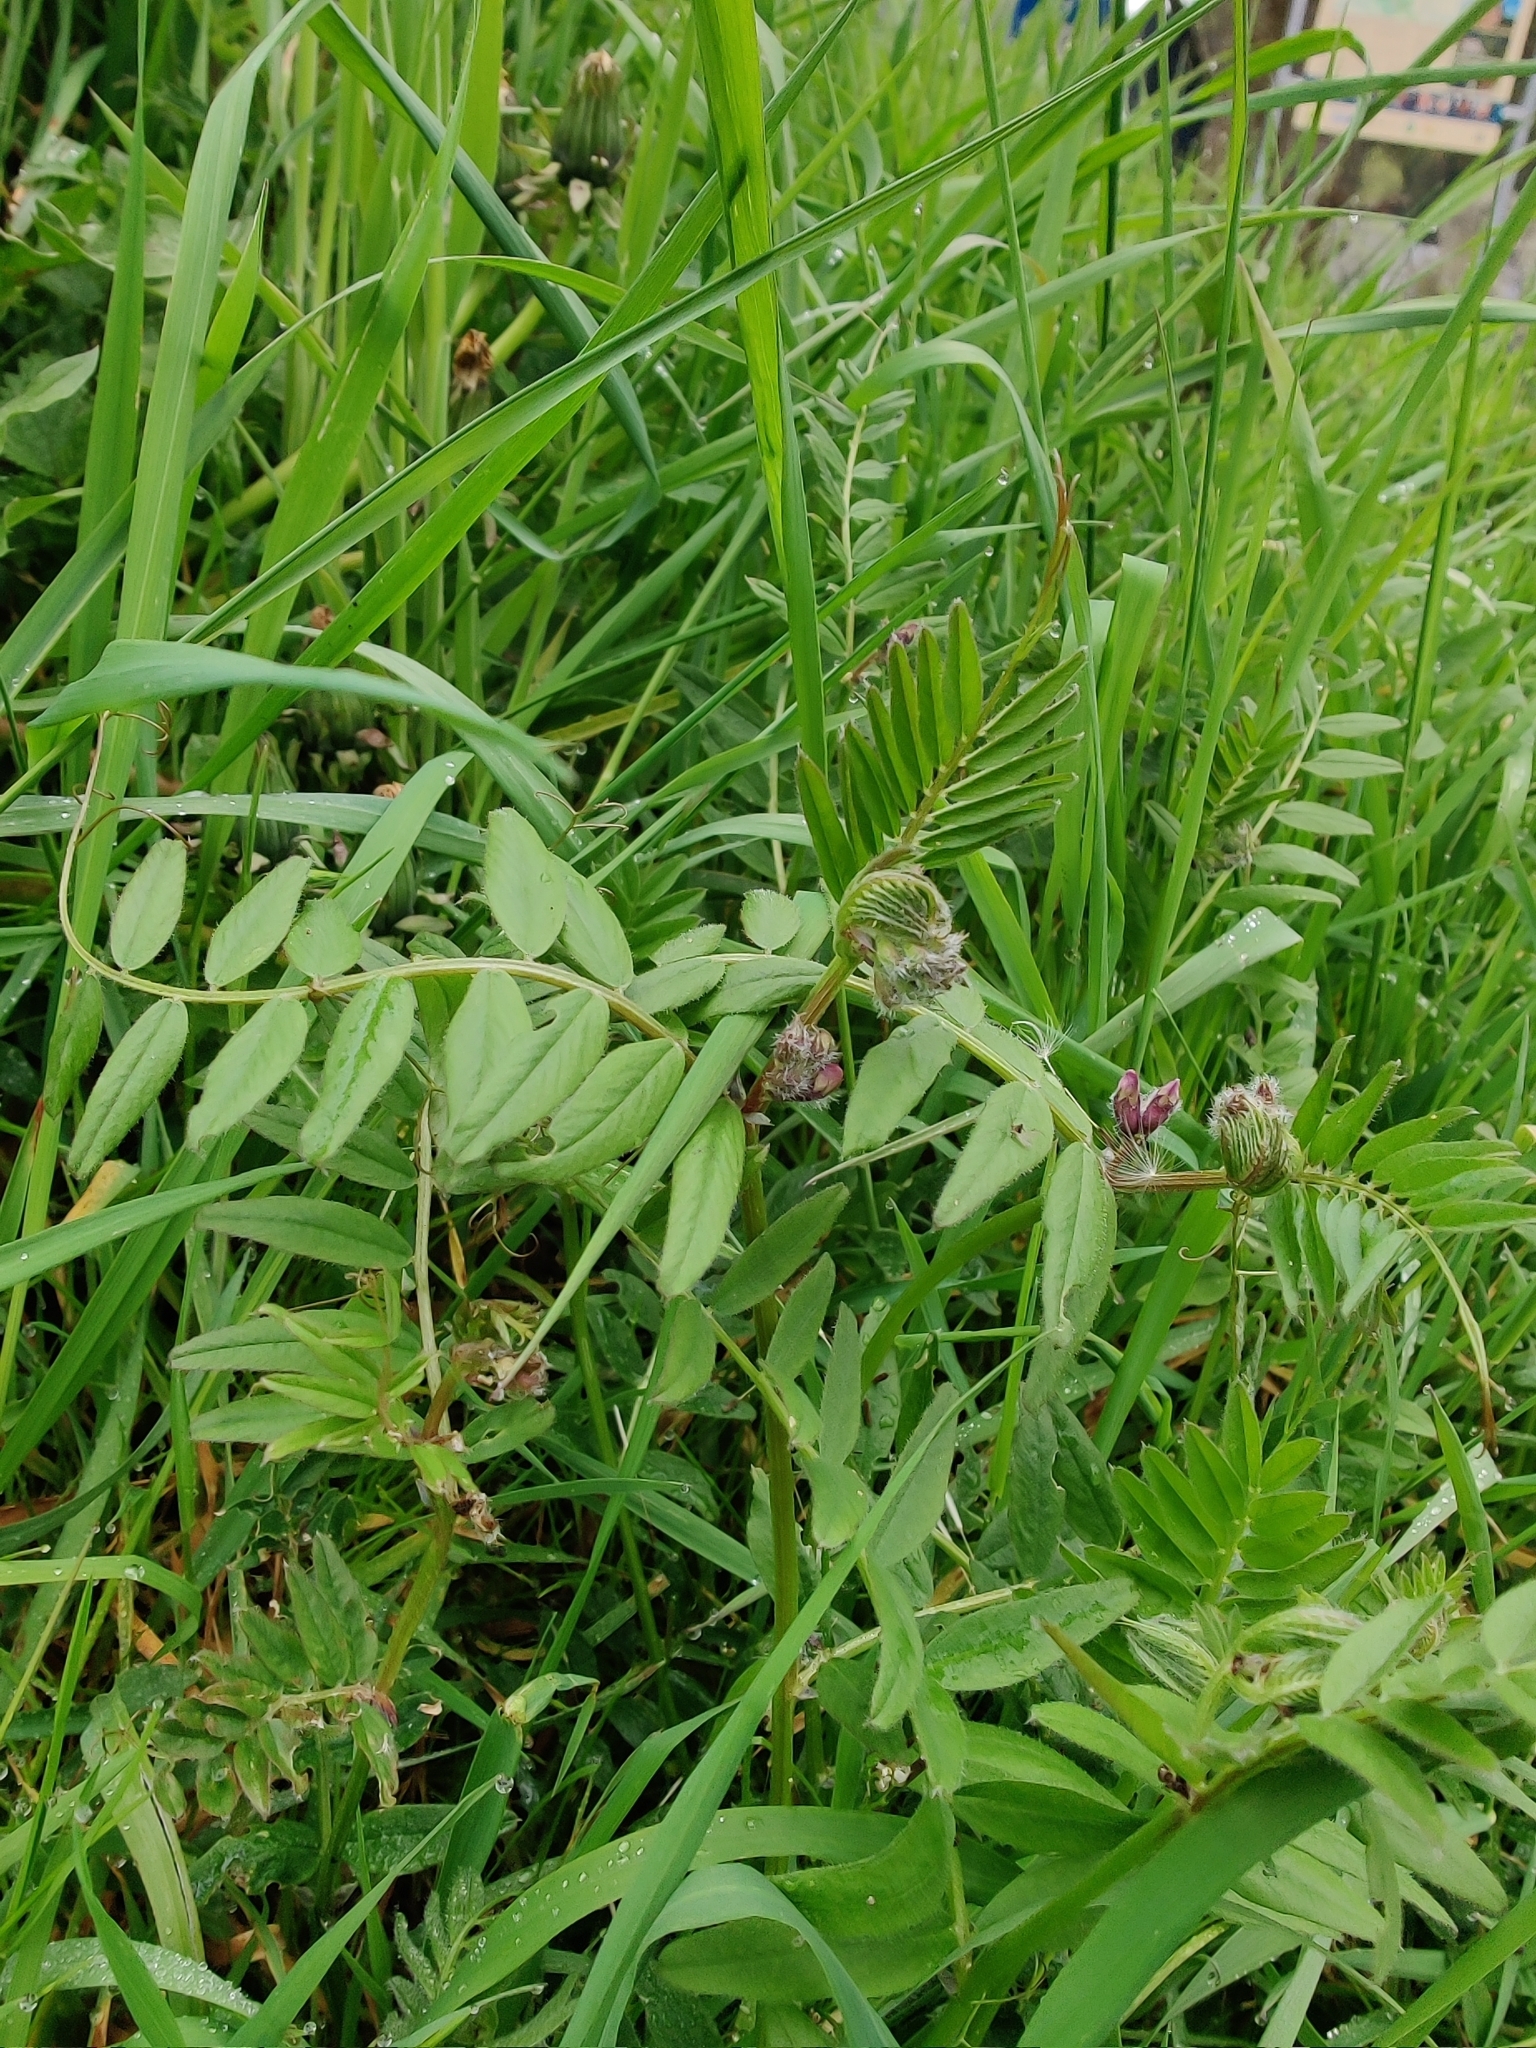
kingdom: Plantae
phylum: Tracheophyta
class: Magnoliopsida
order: Fabales
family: Fabaceae
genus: Vicia
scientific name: Vicia sepium
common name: Bush vetch
